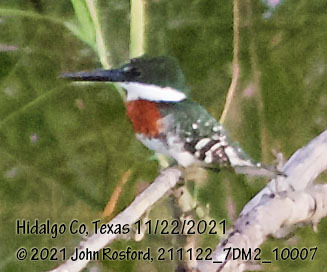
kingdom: Animalia
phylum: Chordata
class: Aves
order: Coraciiformes
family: Alcedinidae
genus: Chloroceryle
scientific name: Chloroceryle americana
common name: Green kingfisher
